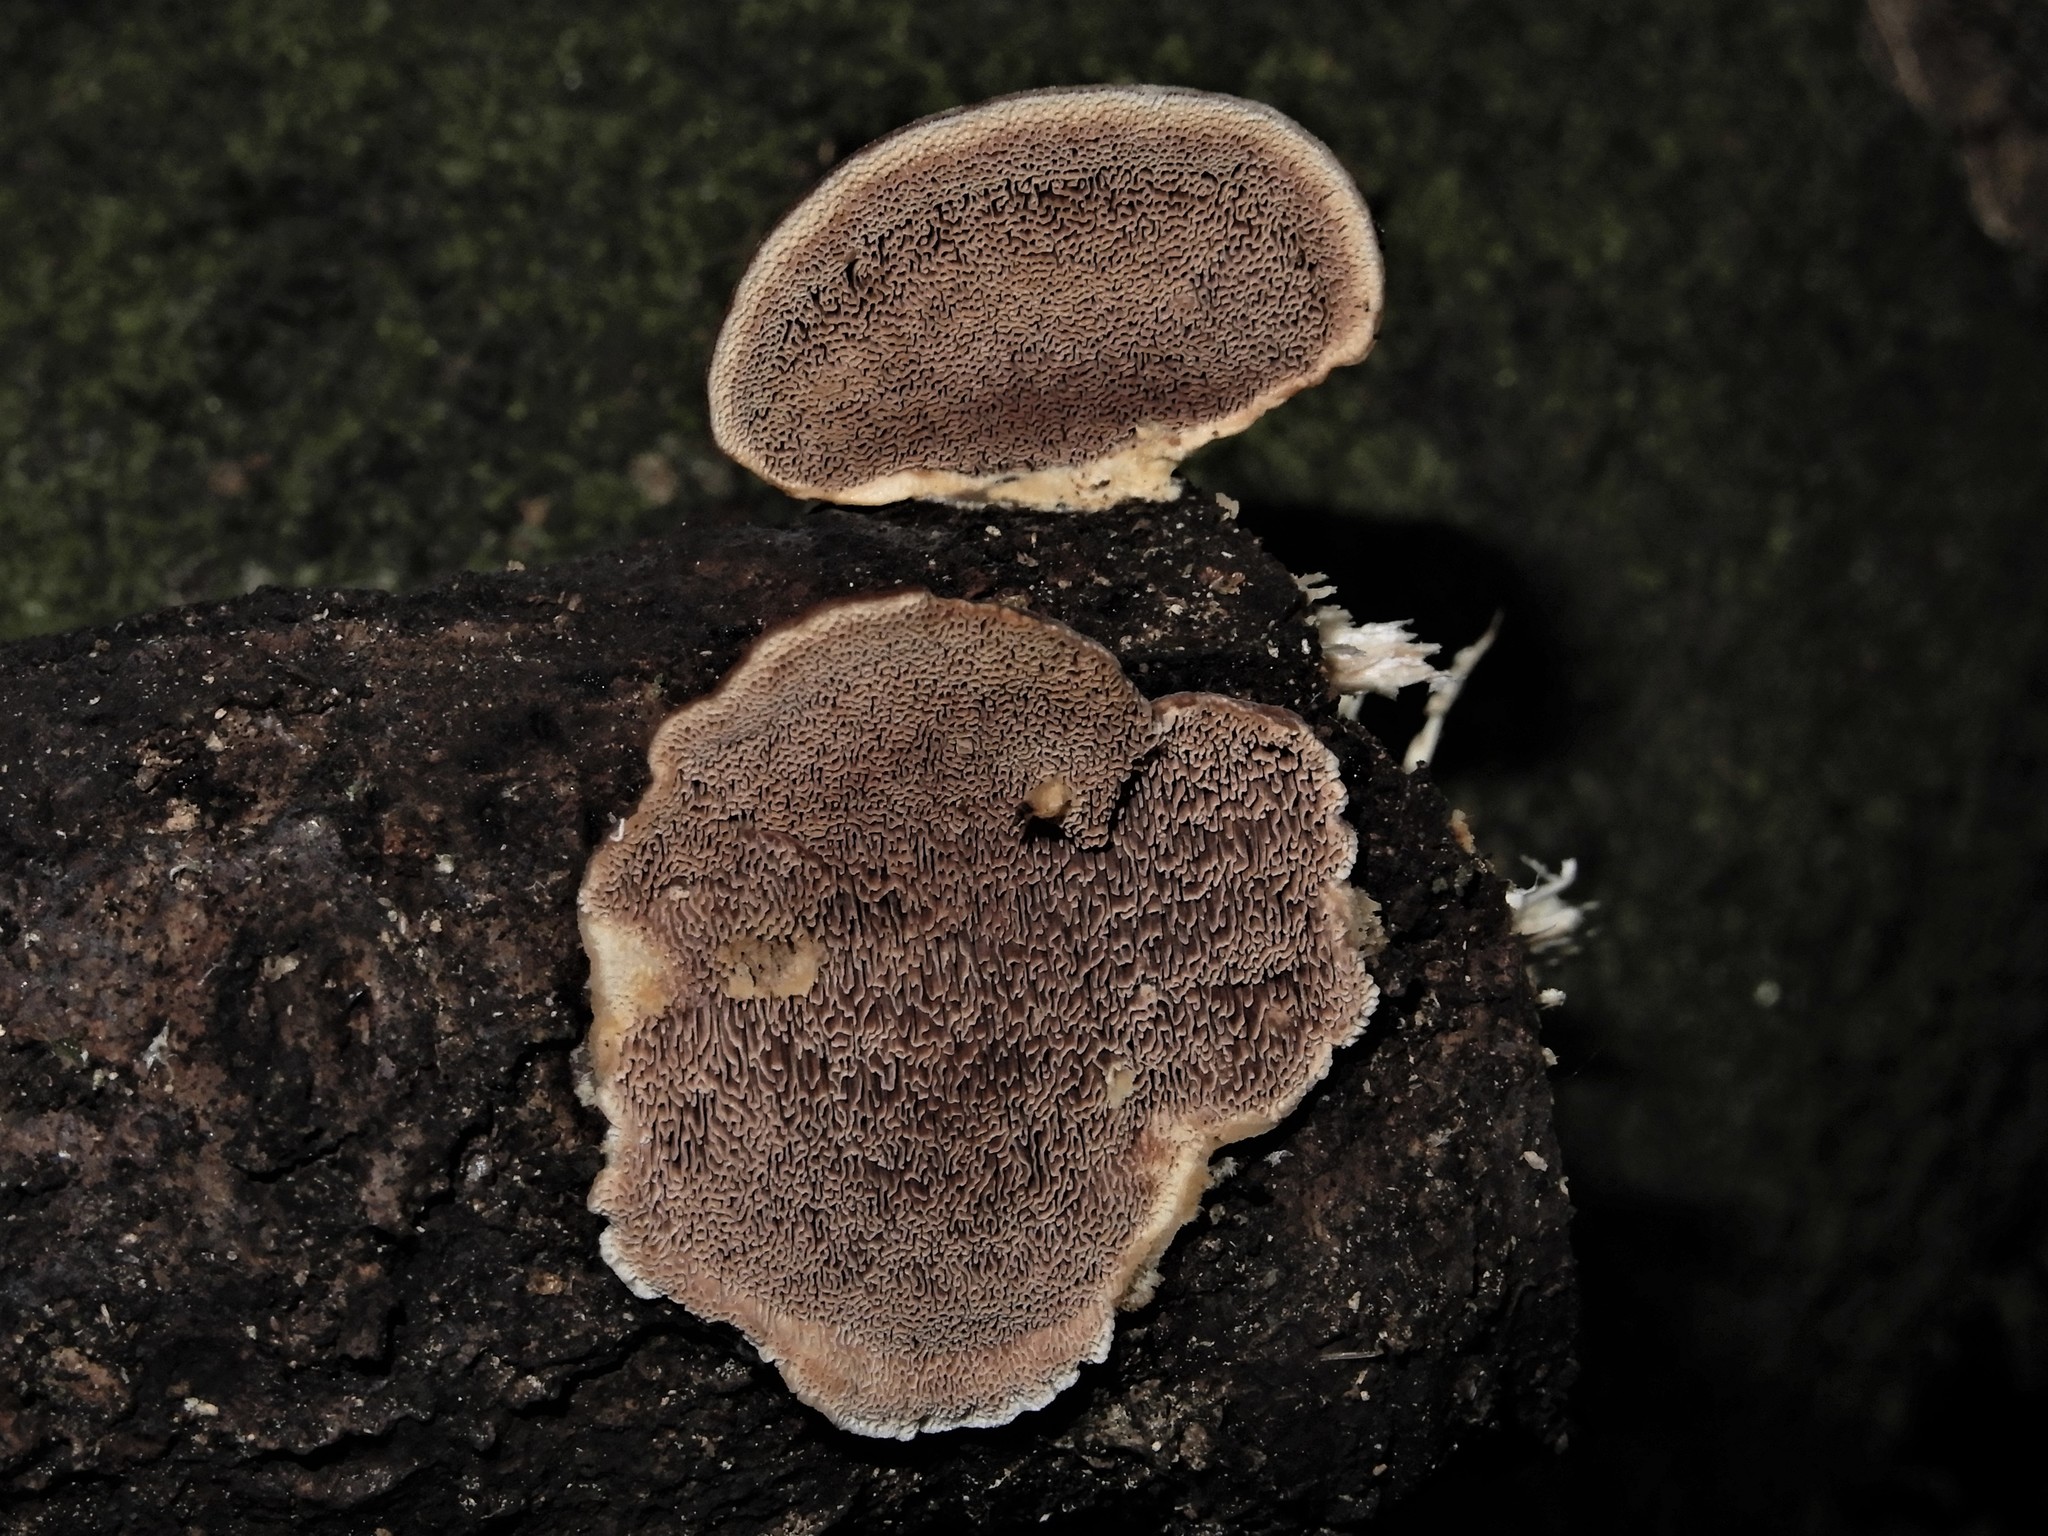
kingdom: Fungi
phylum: Basidiomycota
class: Agaricomycetes
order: Gloeophyllales
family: Gloeophyllaceae
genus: Gloeophyllum
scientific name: Gloeophyllum trabeum
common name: Timber mazegill
